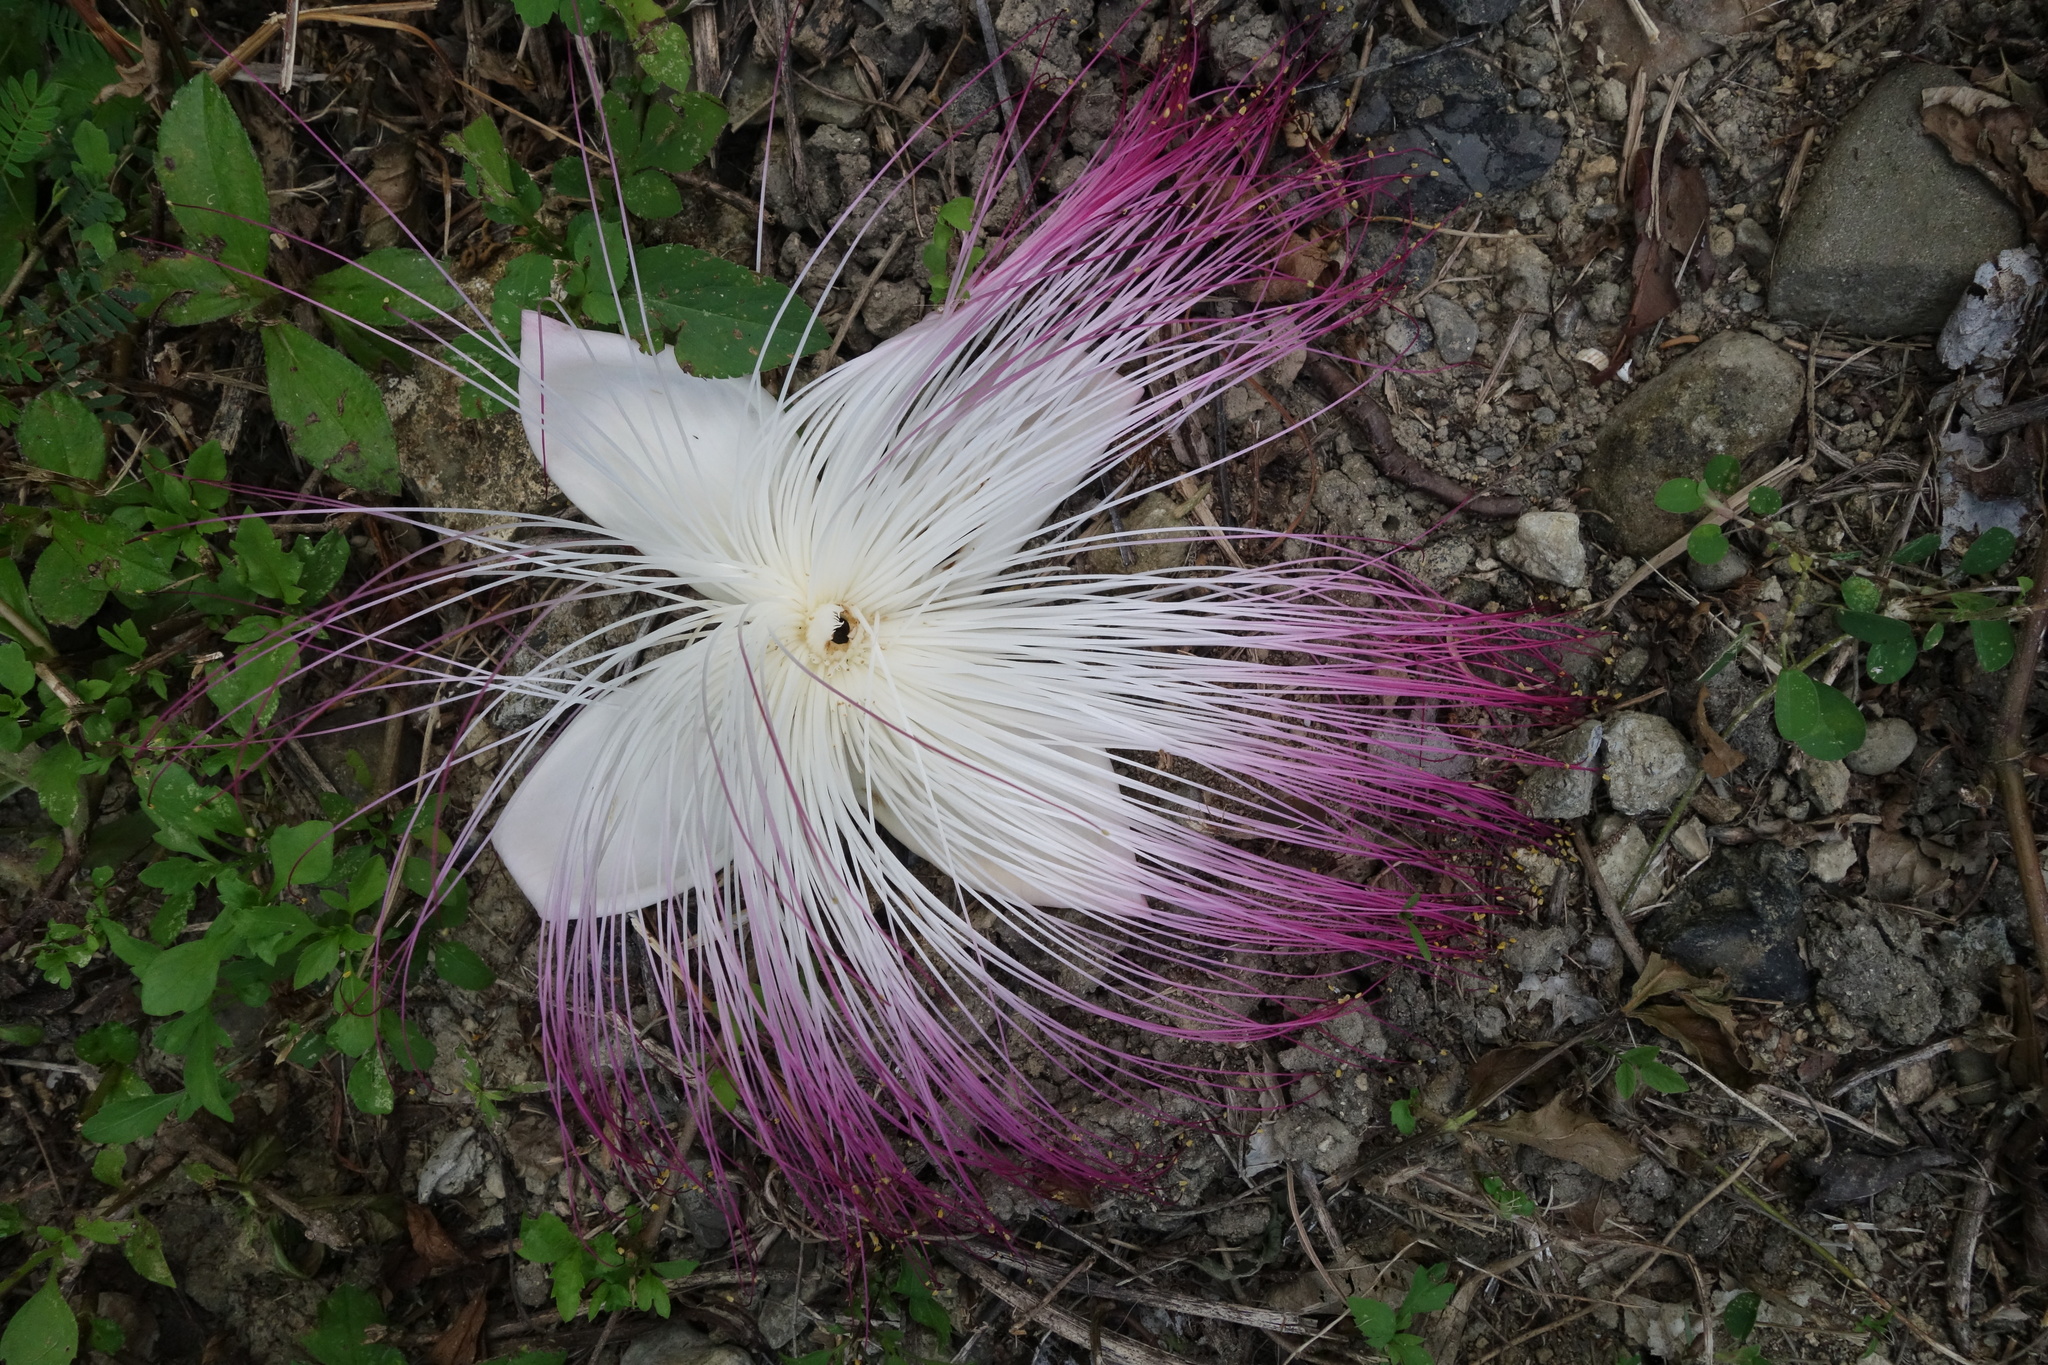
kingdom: Plantae
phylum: Tracheophyta
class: Magnoliopsida
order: Ericales
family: Lecythidaceae
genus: Barringtonia
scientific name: Barringtonia asiatica
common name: Mango-pine
